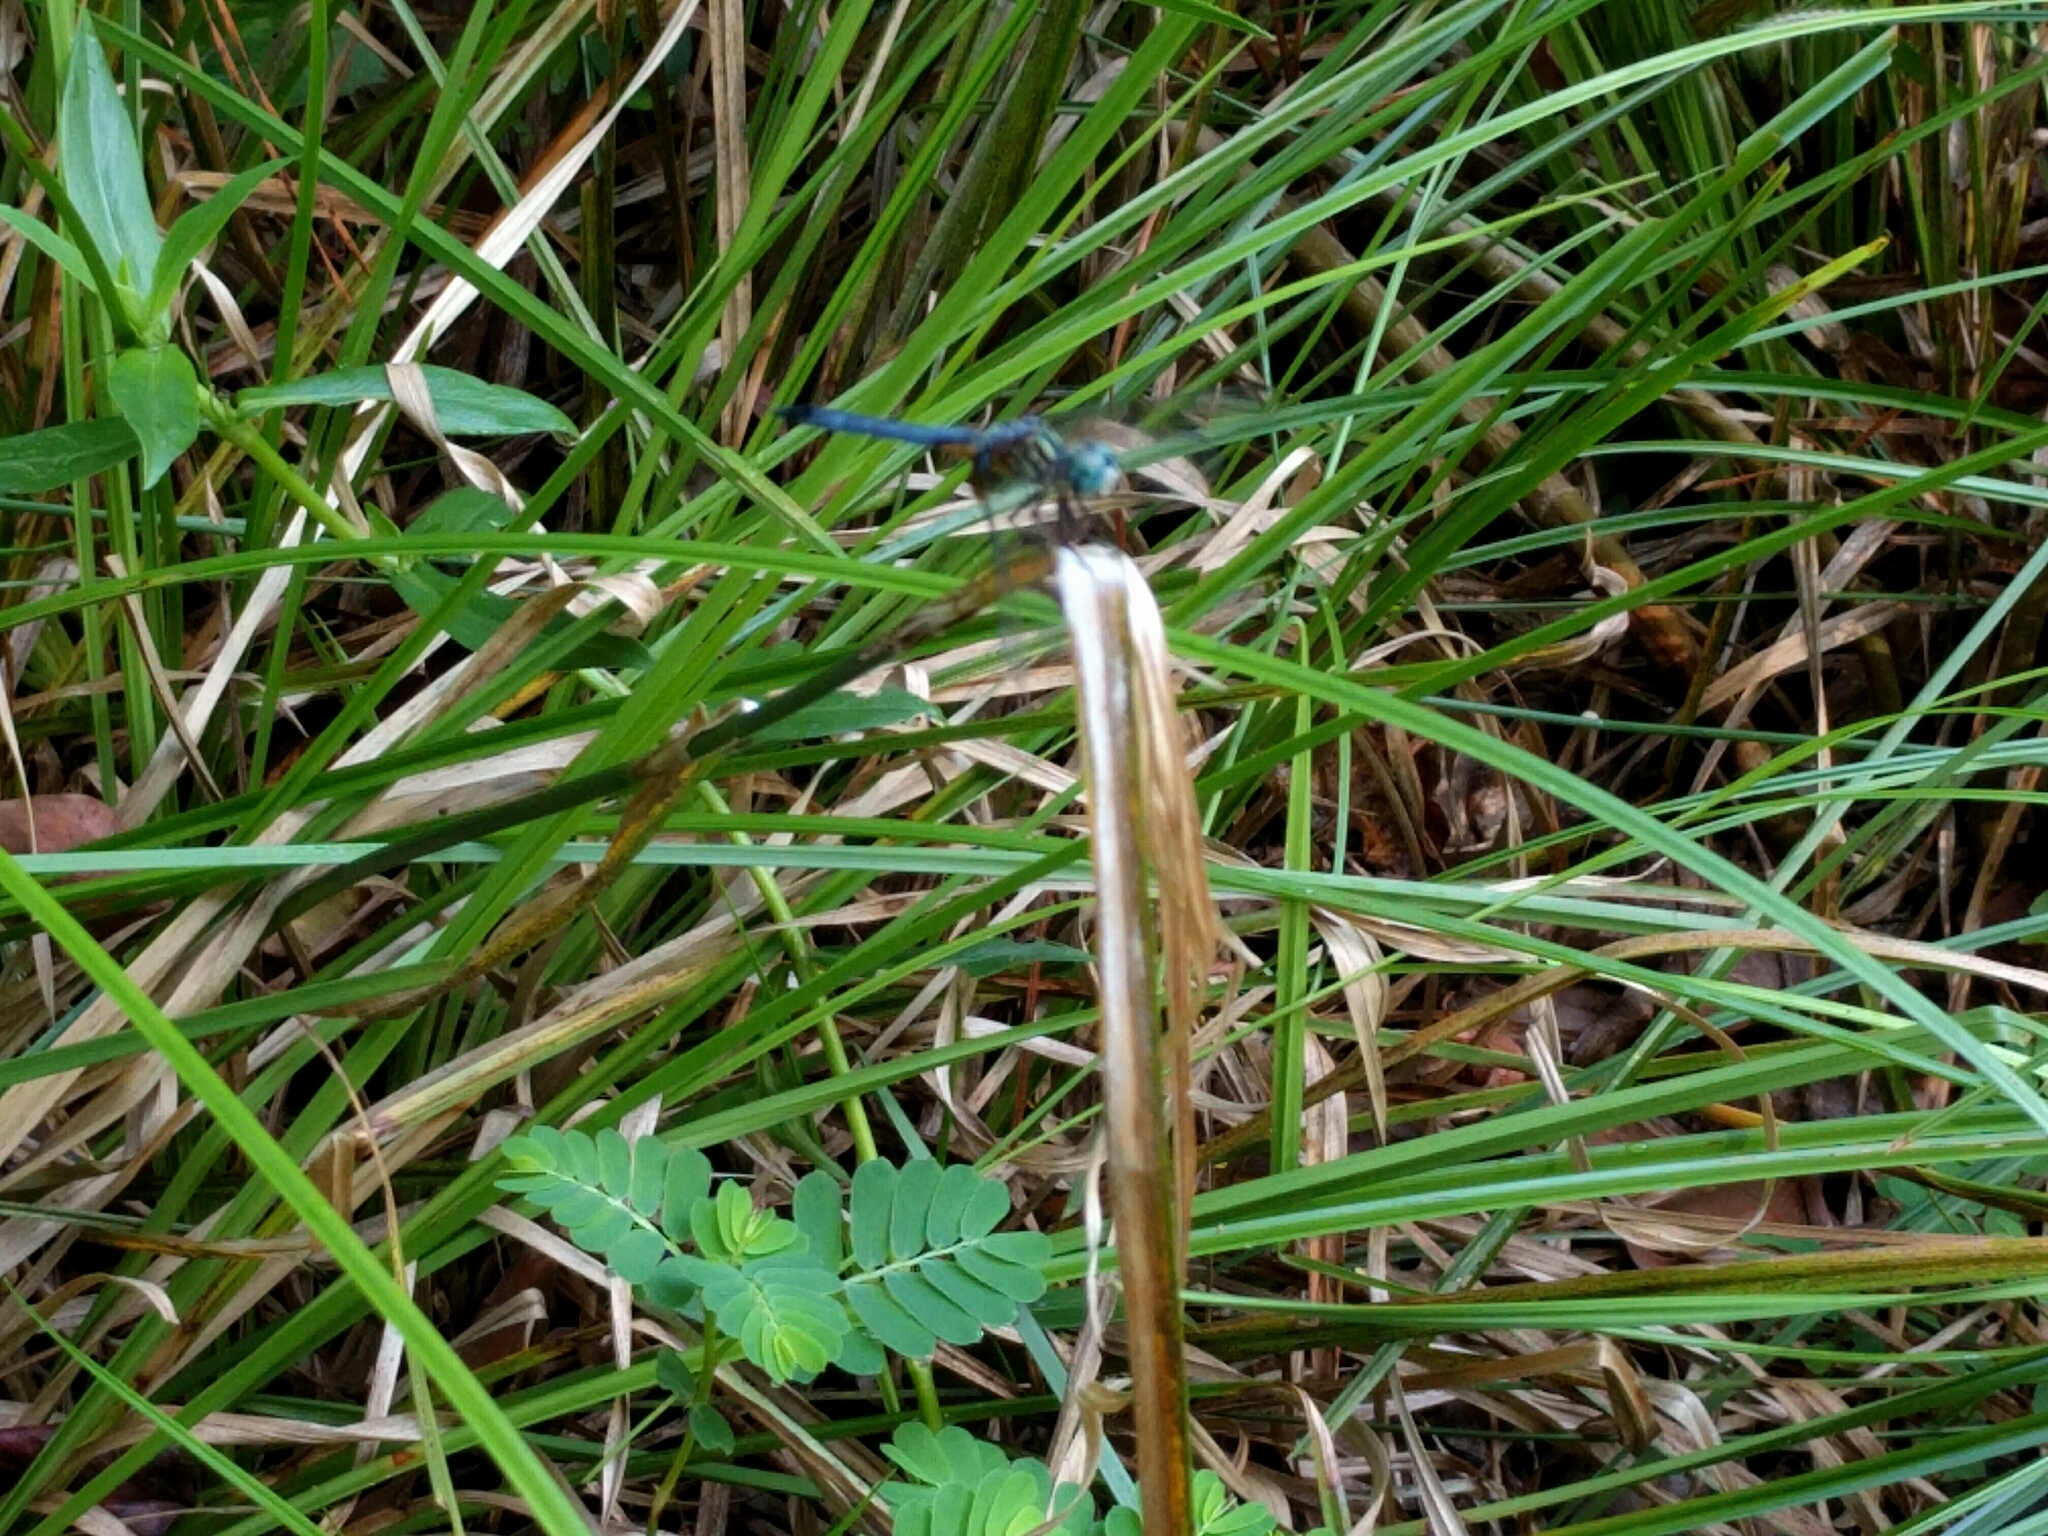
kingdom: Animalia
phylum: Arthropoda
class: Insecta
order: Odonata
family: Libellulidae
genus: Pachydiplax
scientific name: Pachydiplax longipennis
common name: Blue dasher
